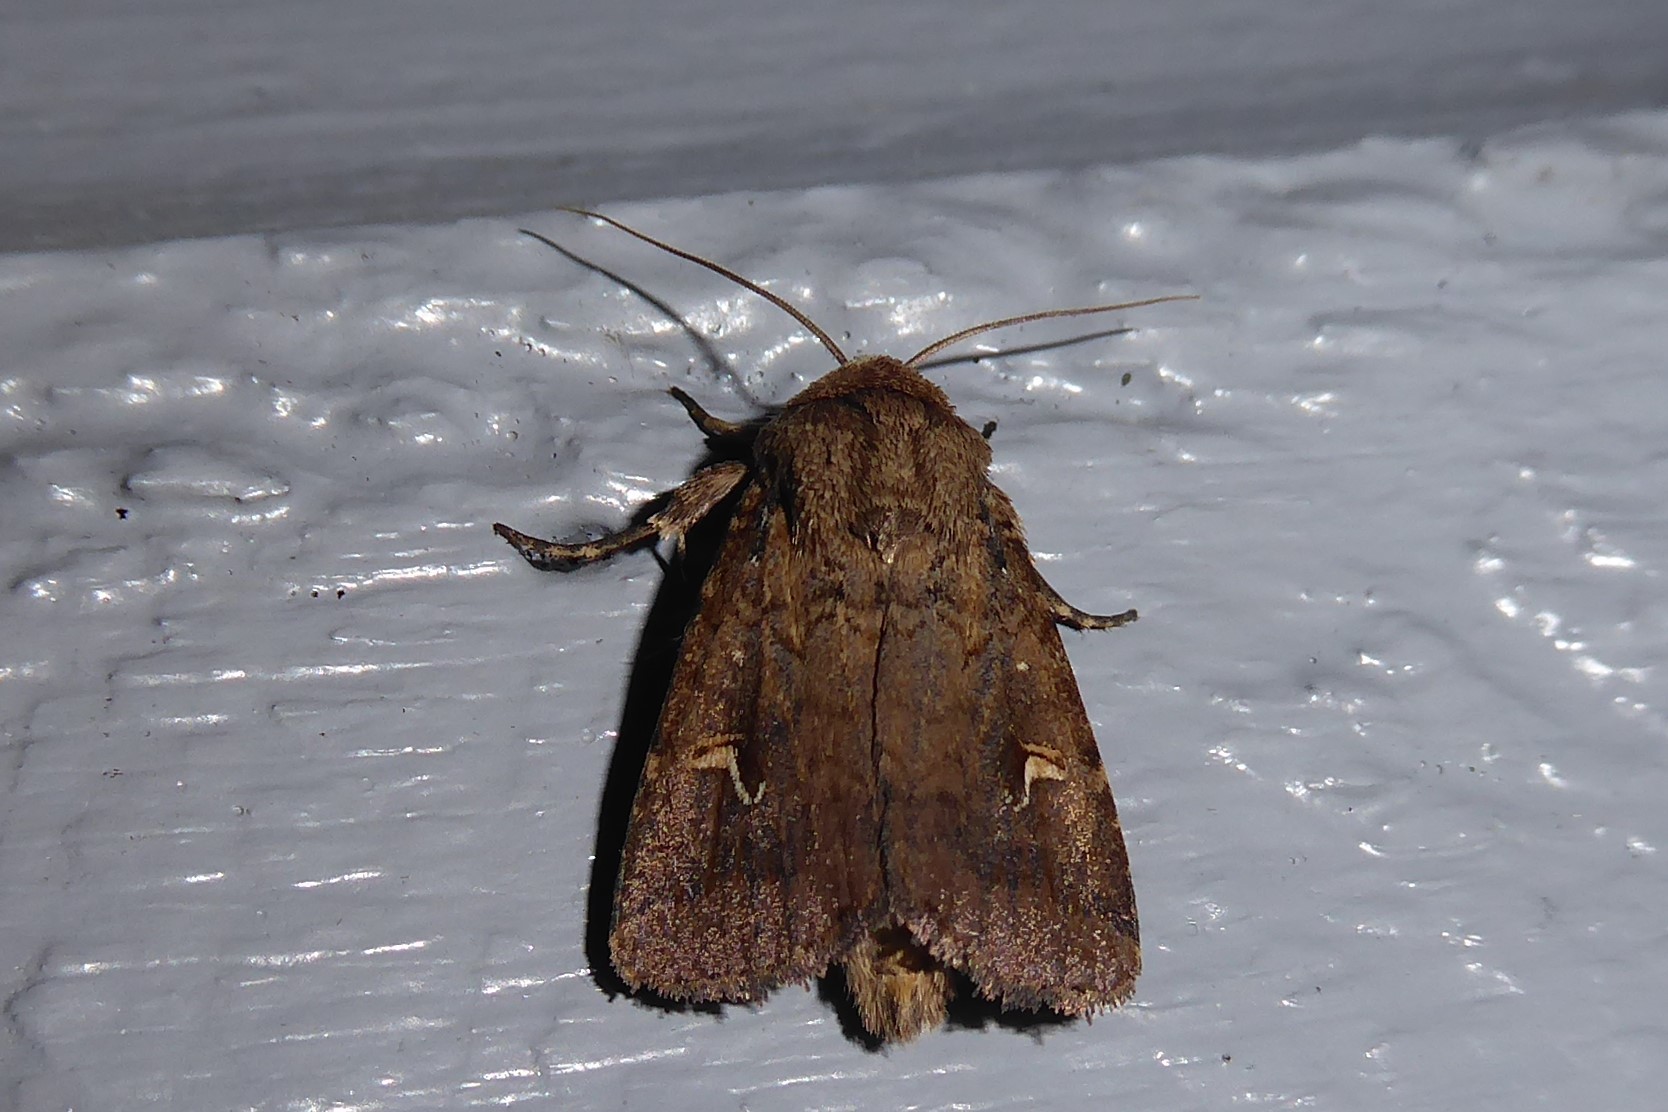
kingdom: Animalia
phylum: Arthropoda
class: Insecta
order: Lepidoptera
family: Noctuidae
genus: Proteuxoa
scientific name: Proteuxoa tetronycha
